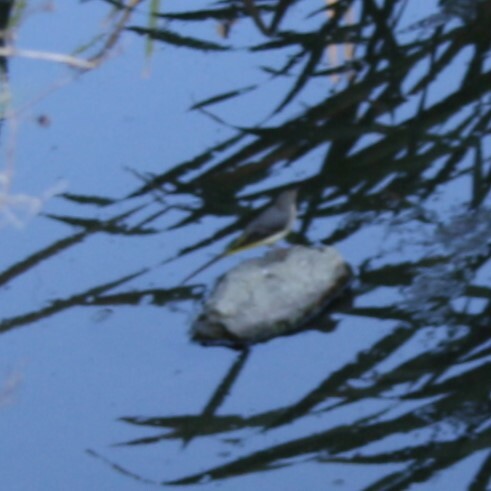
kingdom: Animalia
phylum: Chordata
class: Aves
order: Passeriformes
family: Motacillidae
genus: Motacilla
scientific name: Motacilla cinerea
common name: Grey wagtail
